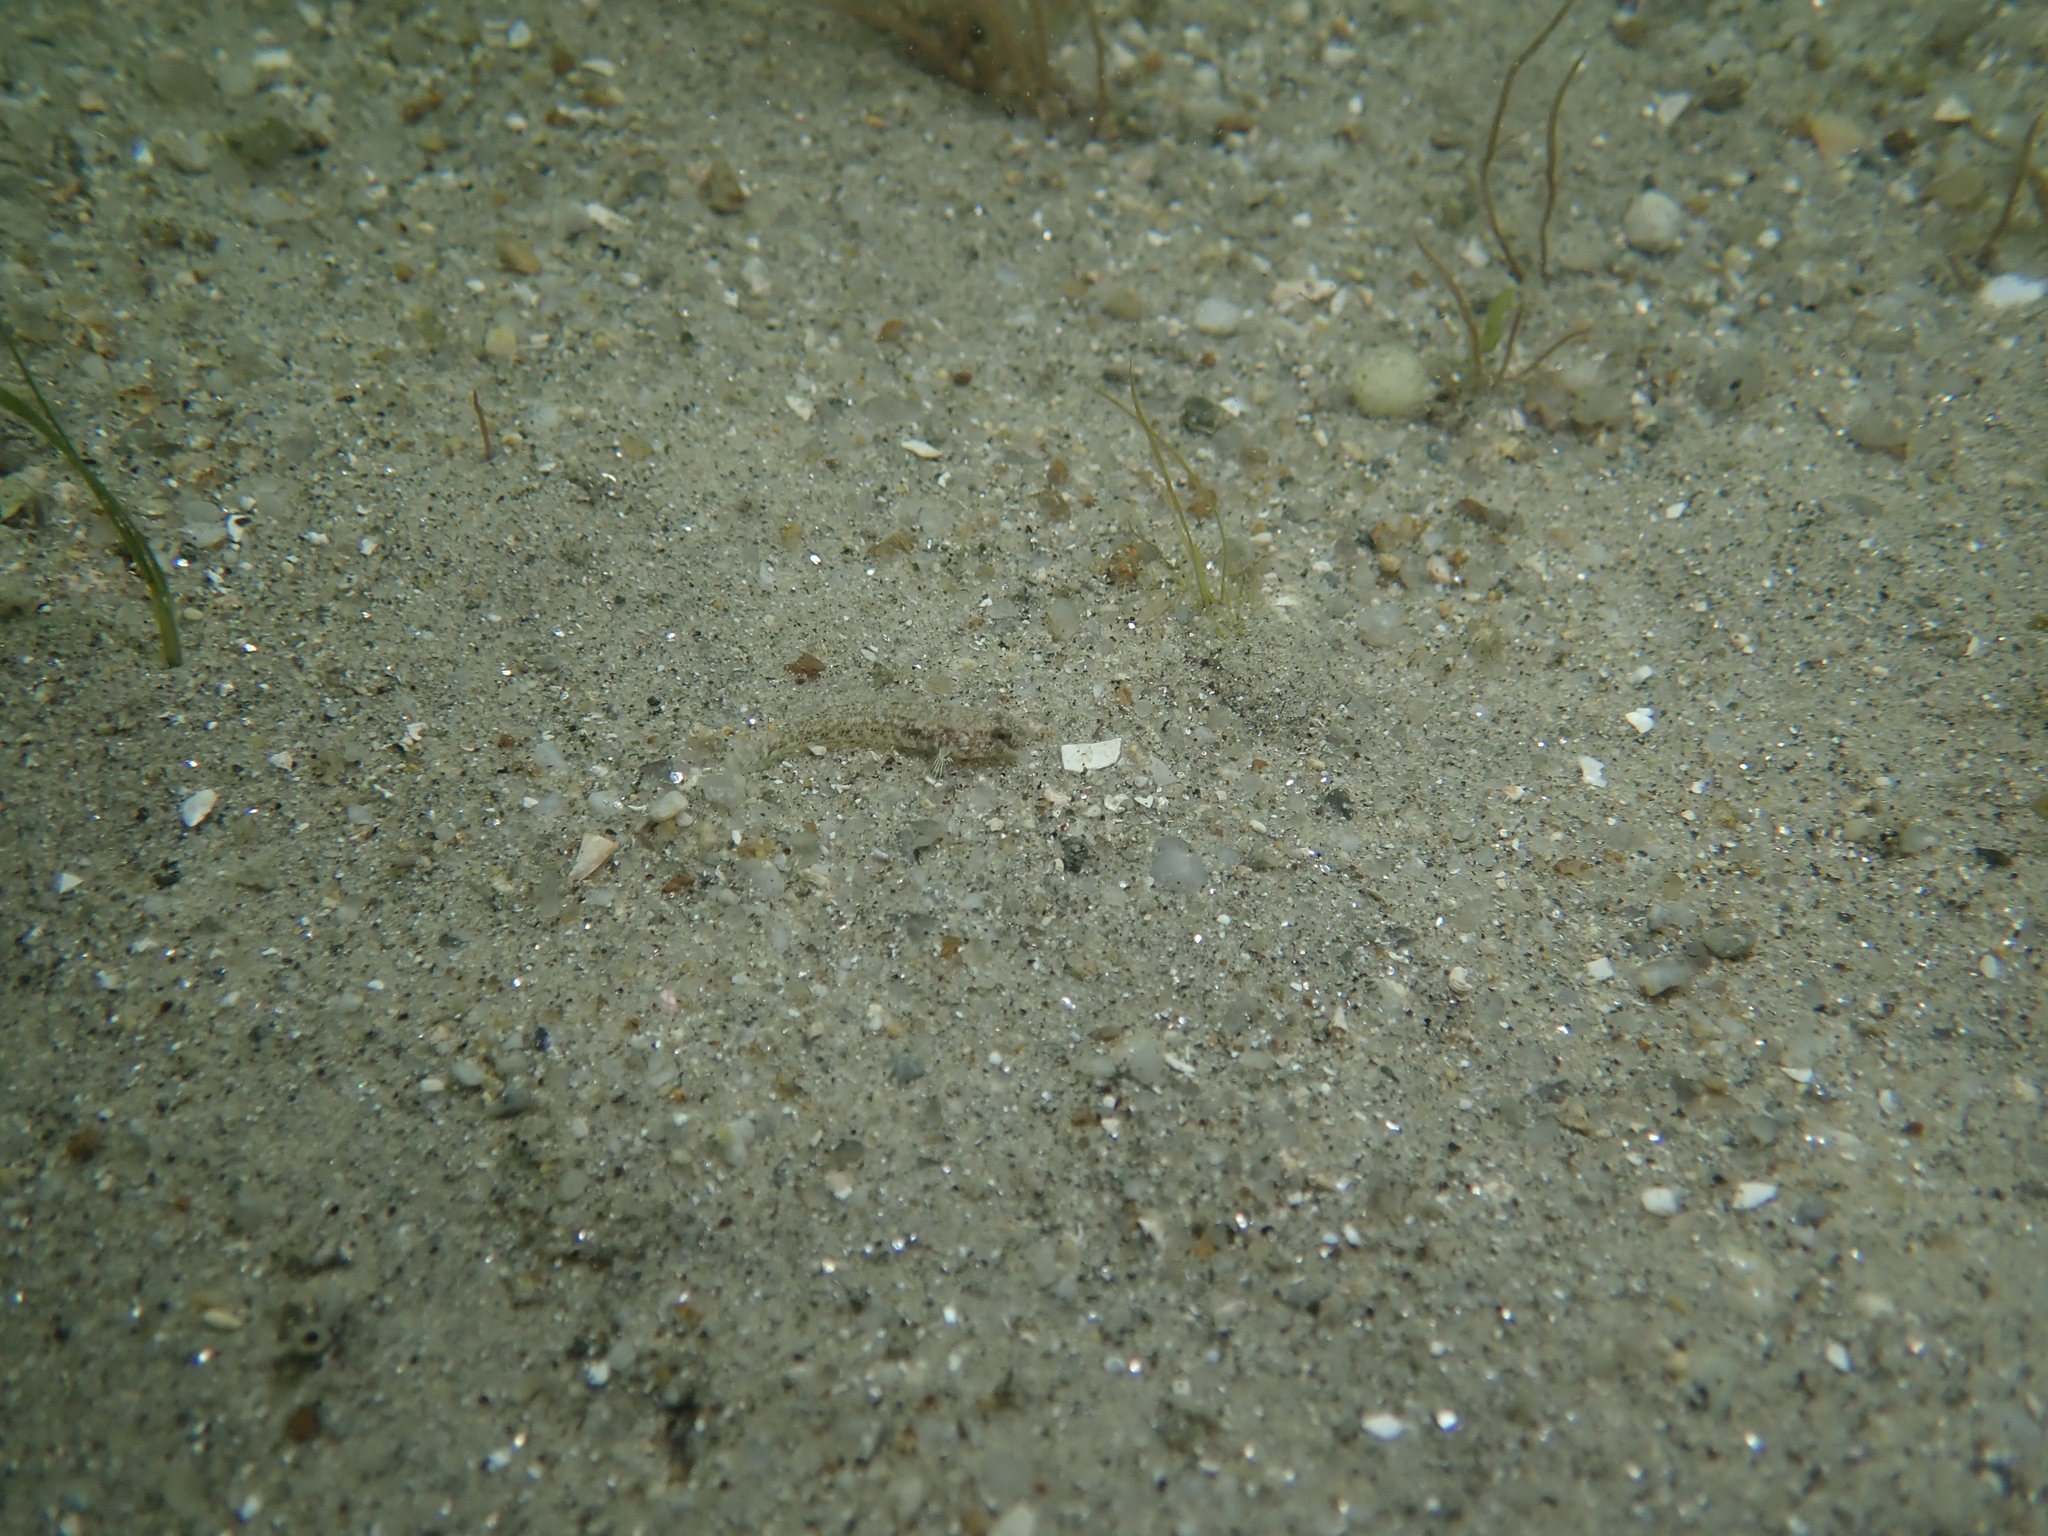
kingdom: Animalia
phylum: Chordata
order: Perciformes
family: Gobiidae
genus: Gobius
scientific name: Gobius niger
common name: Black goby
